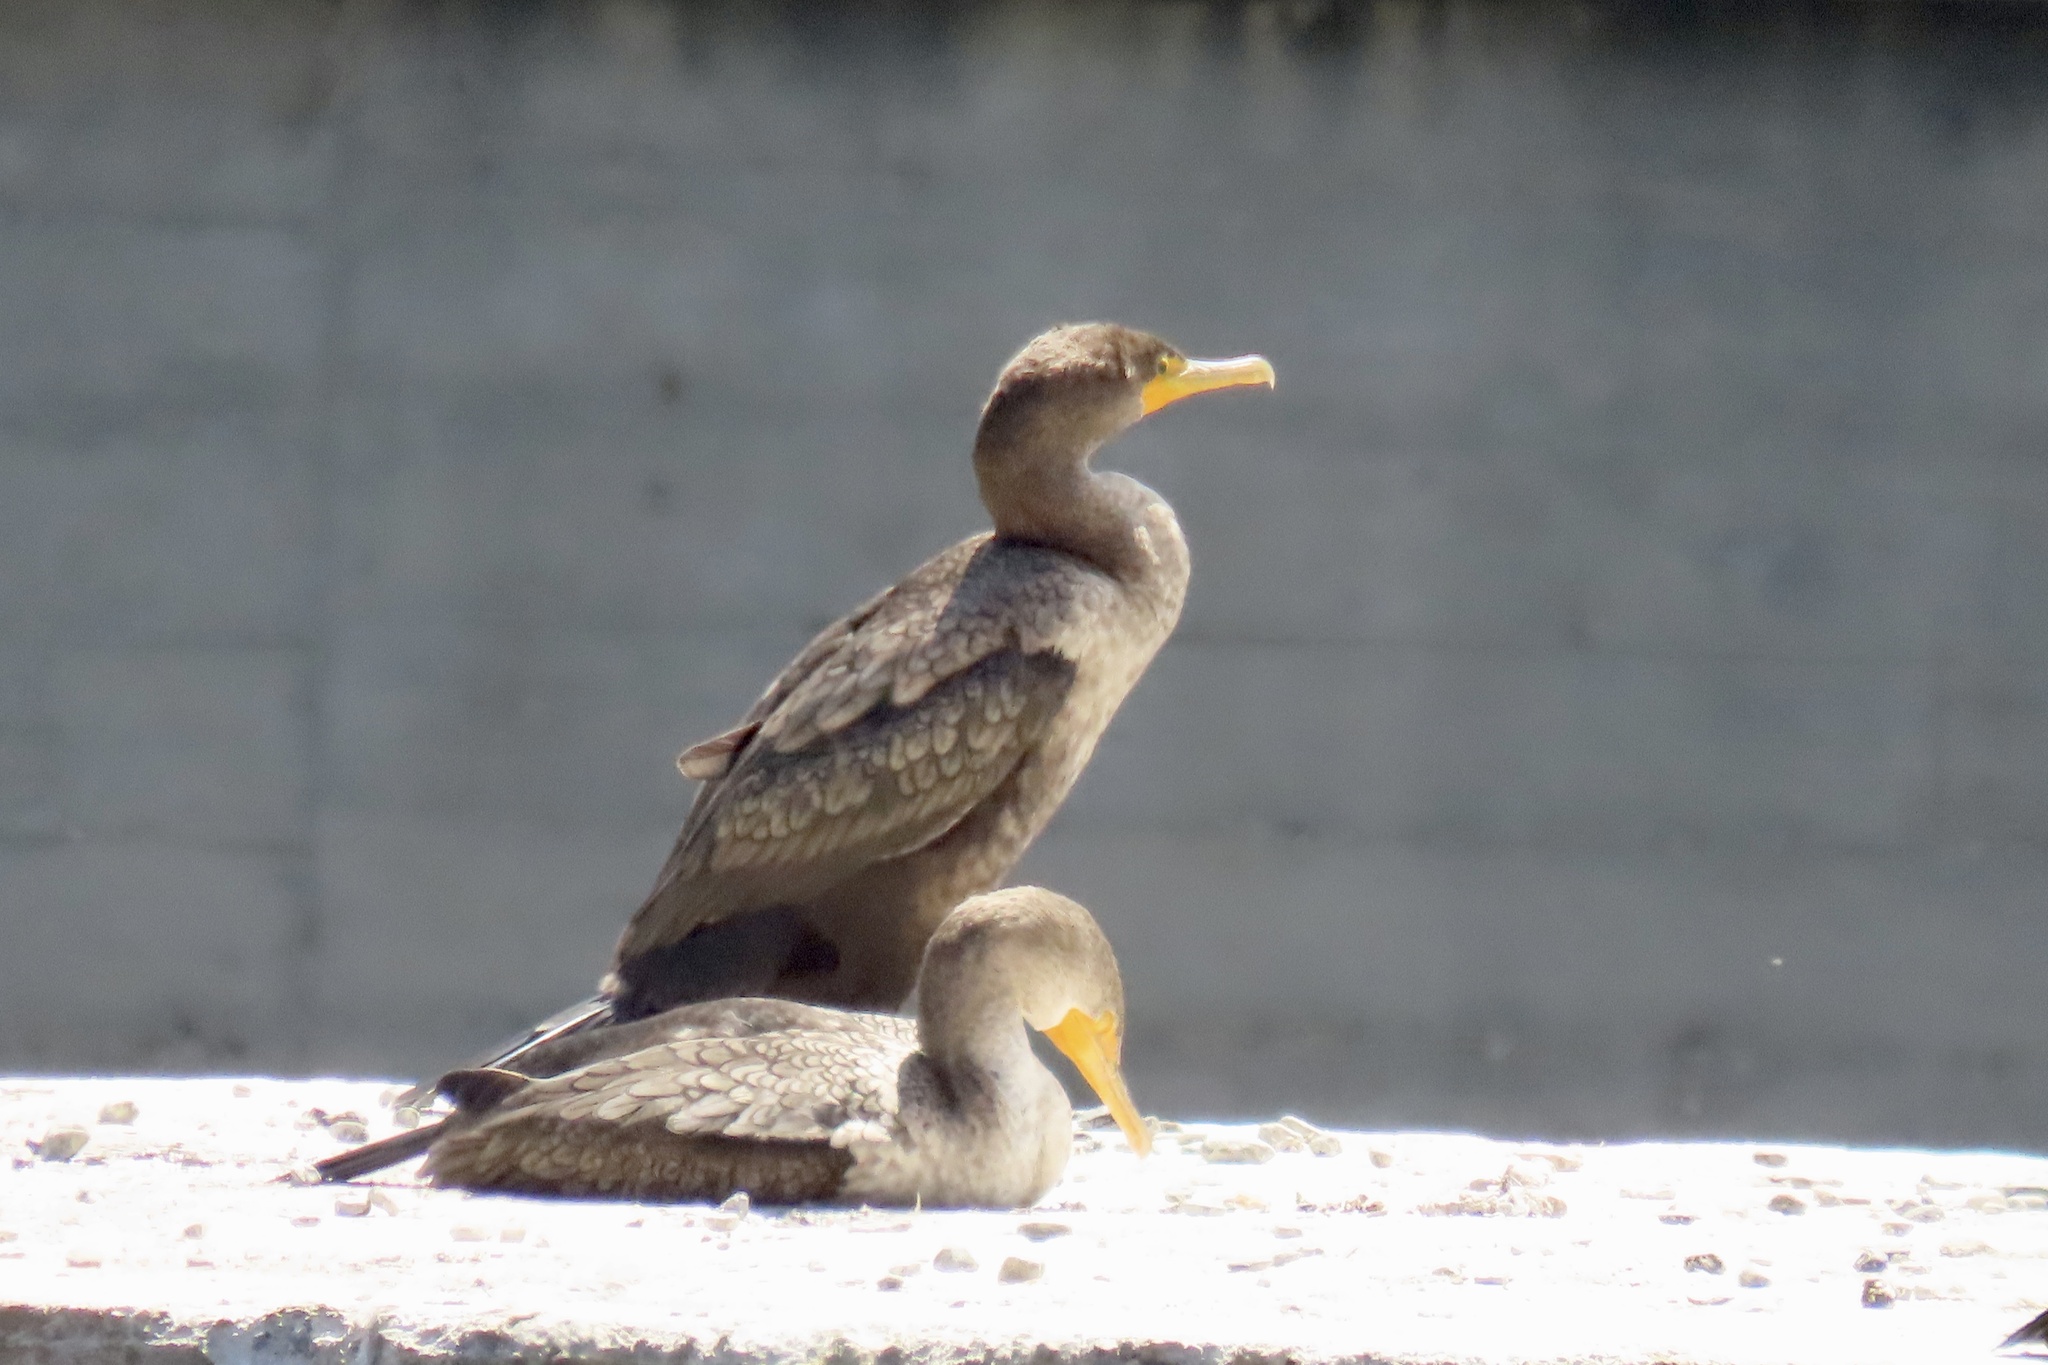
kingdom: Animalia
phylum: Chordata
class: Aves
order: Suliformes
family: Phalacrocoracidae
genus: Phalacrocorax
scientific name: Phalacrocorax auritus
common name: Double-crested cormorant
